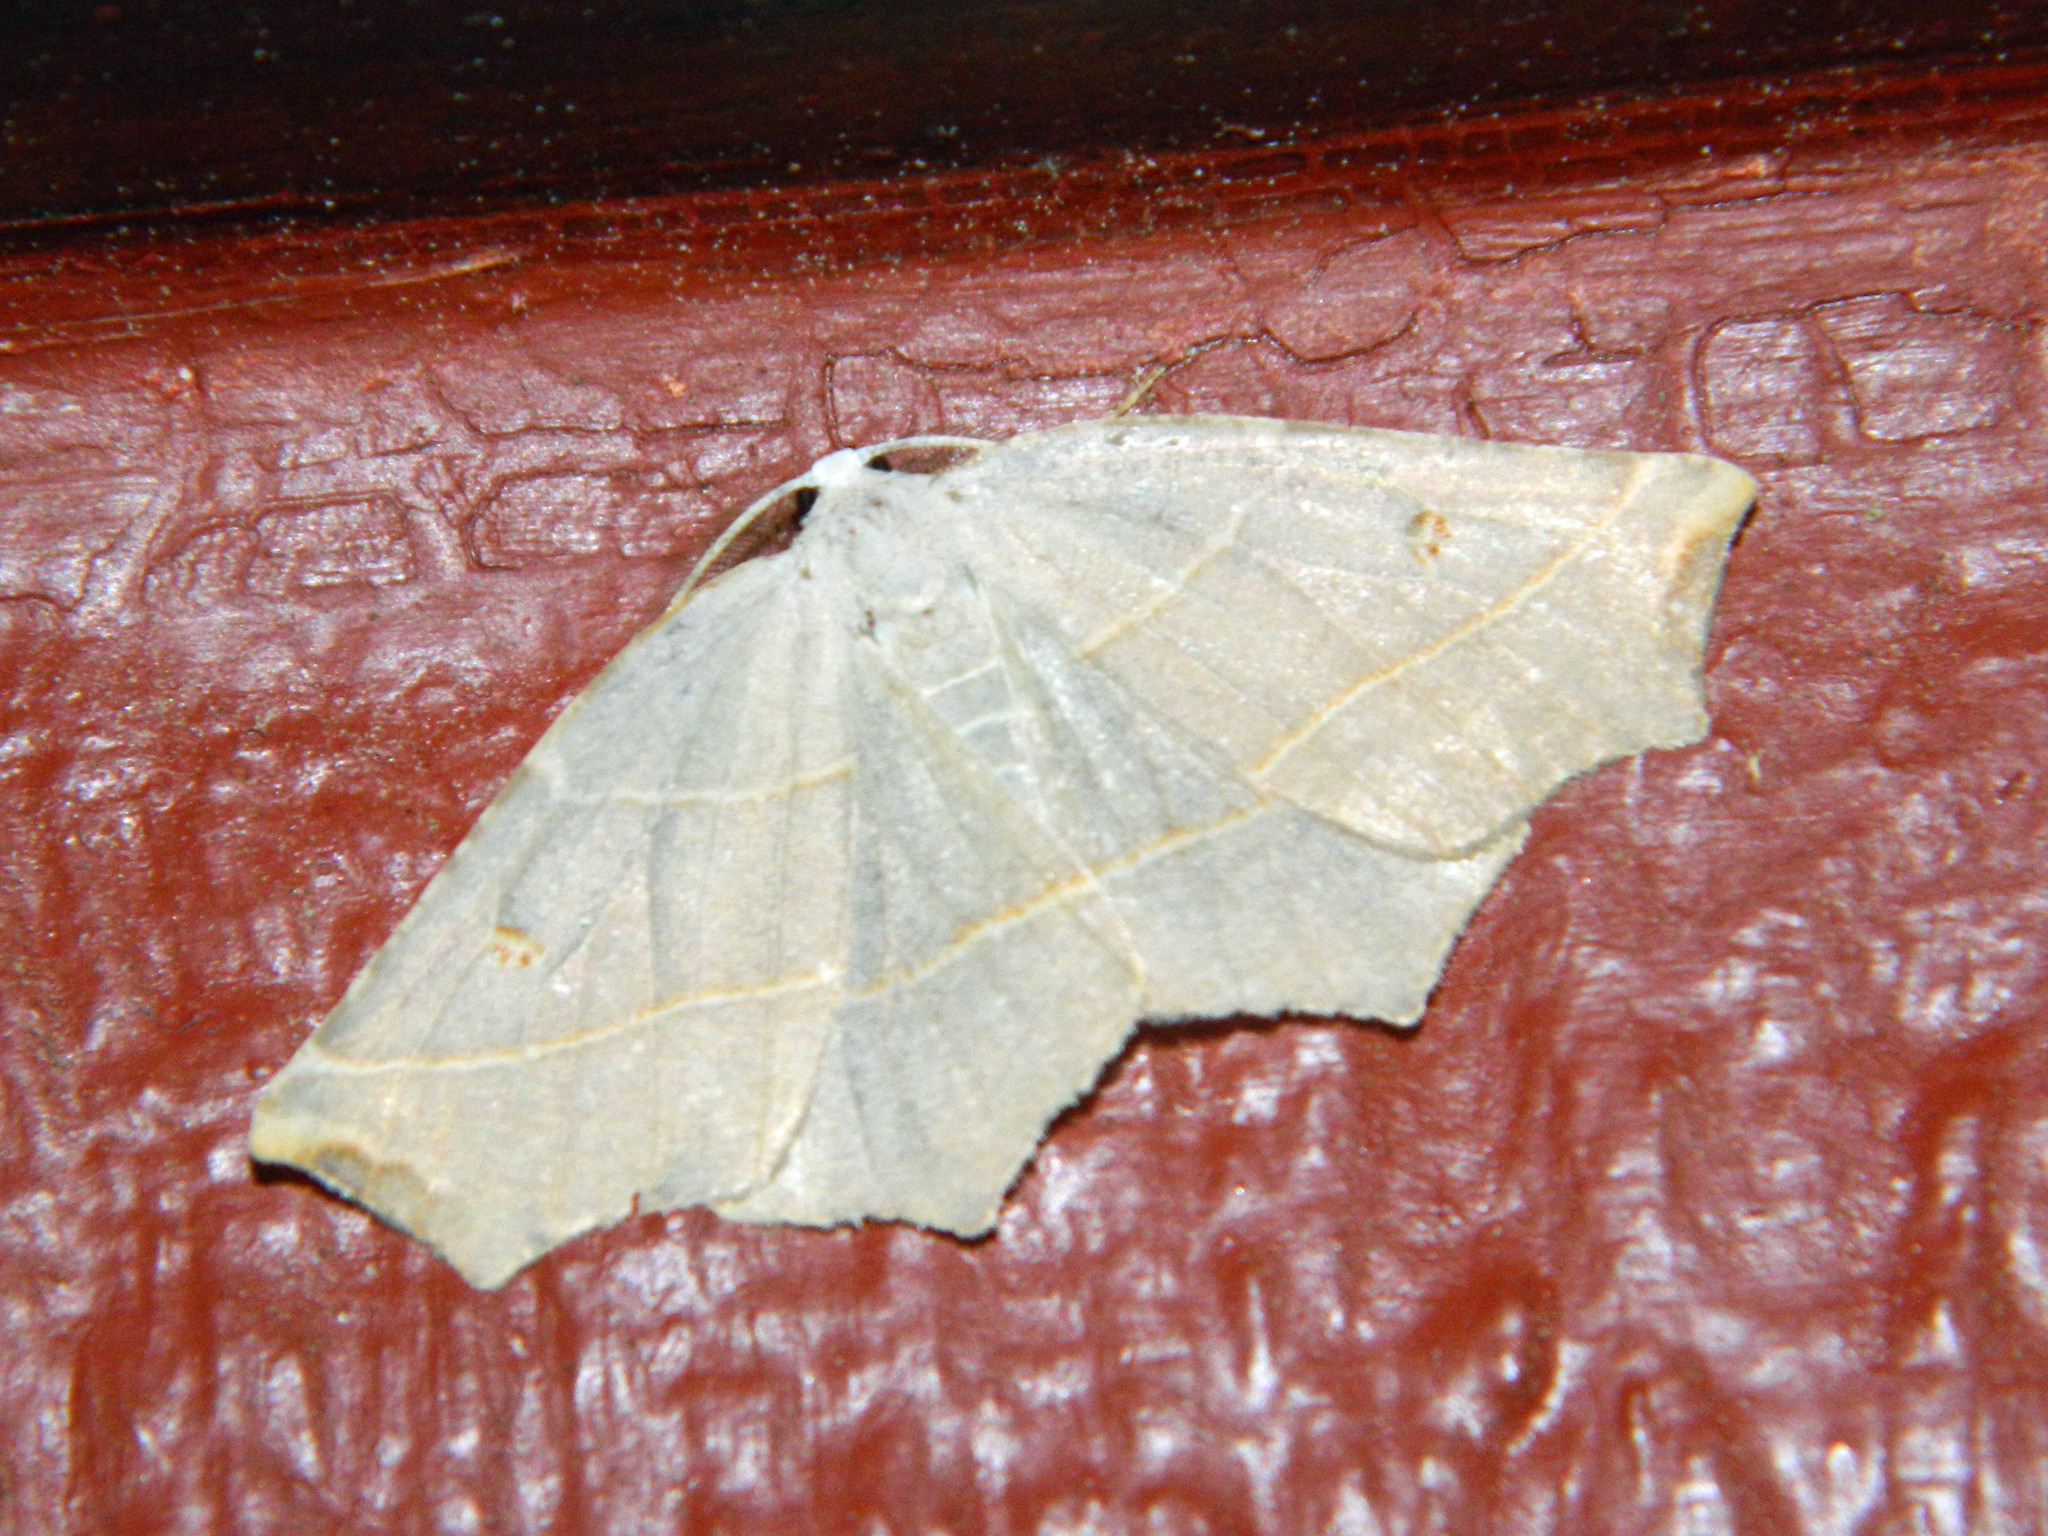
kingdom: Animalia
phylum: Arthropoda
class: Insecta
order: Lepidoptera
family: Geometridae
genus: Metanema
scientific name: Metanema inatomaria
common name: Pale metanema
